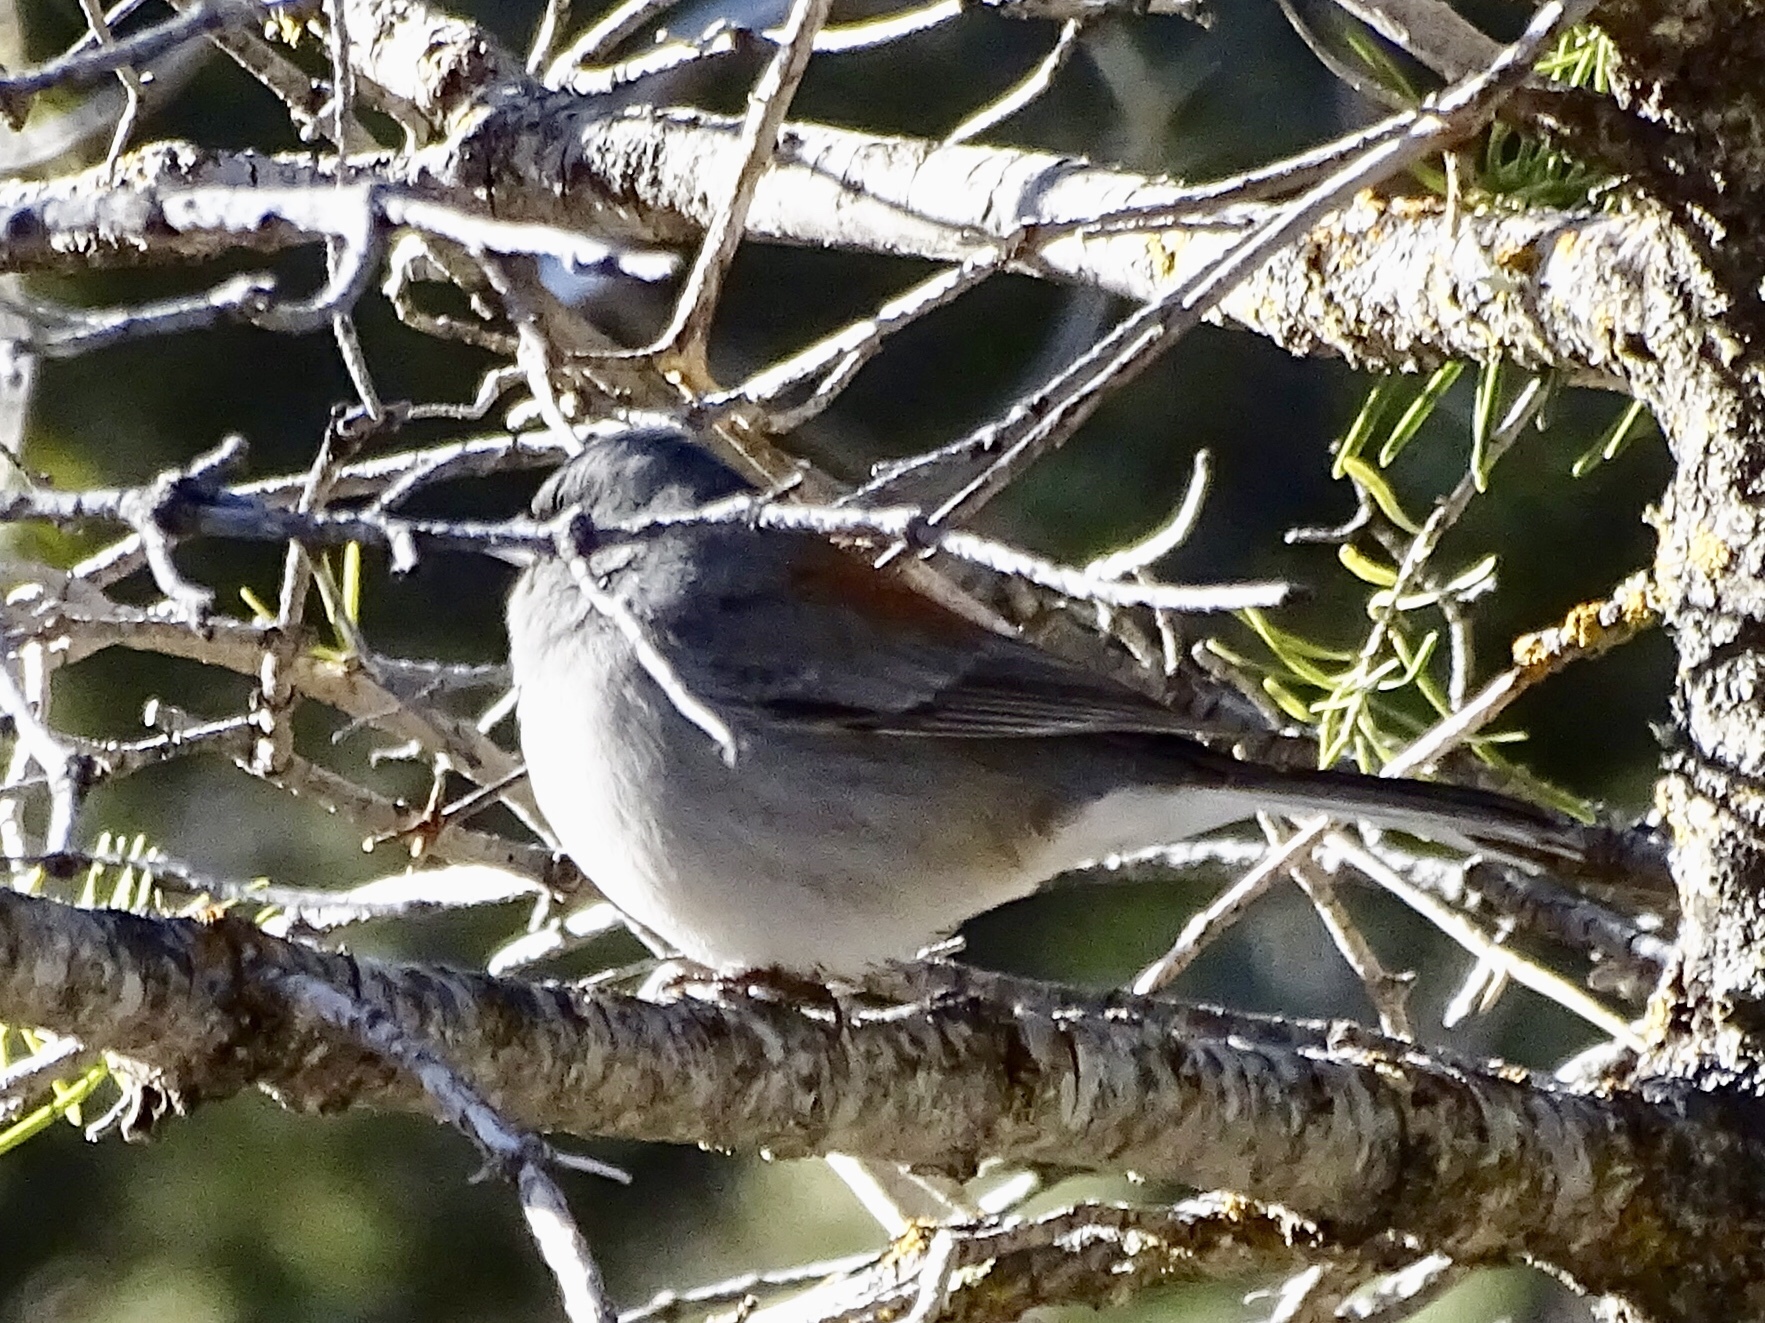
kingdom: Animalia
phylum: Chordata
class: Aves
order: Passeriformes
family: Passerellidae
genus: Junco
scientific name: Junco hyemalis
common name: Dark-eyed junco
